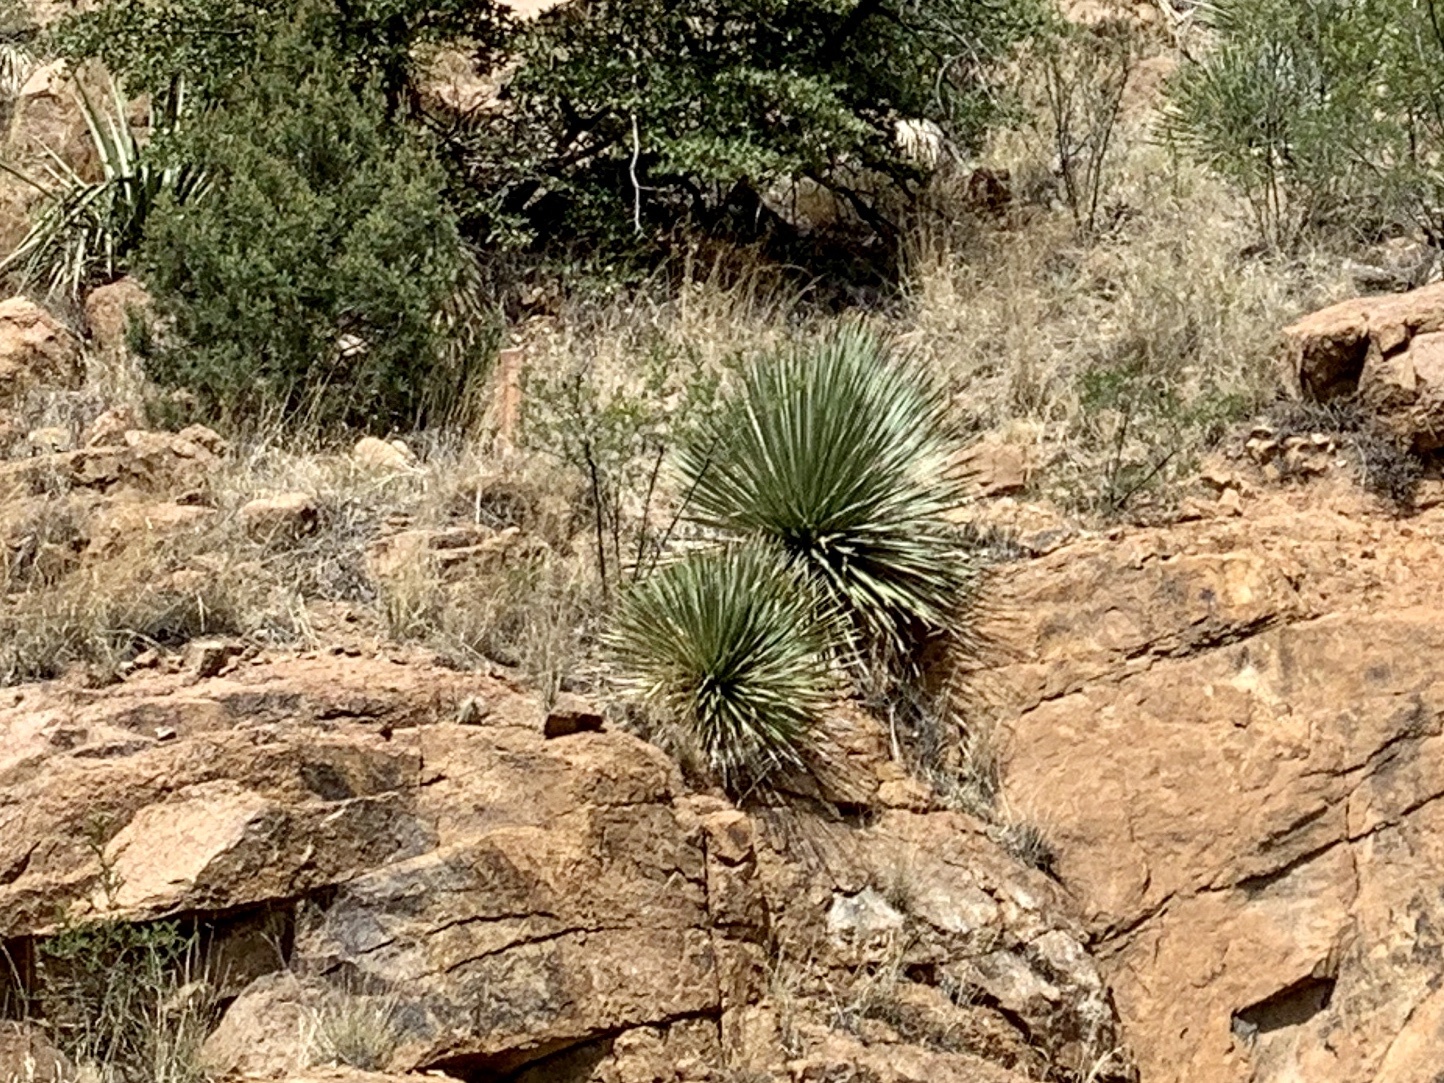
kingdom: Plantae
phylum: Tracheophyta
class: Liliopsida
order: Asparagales
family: Asparagaceae
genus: Dasylirion
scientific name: Dasylirion wheeleri
